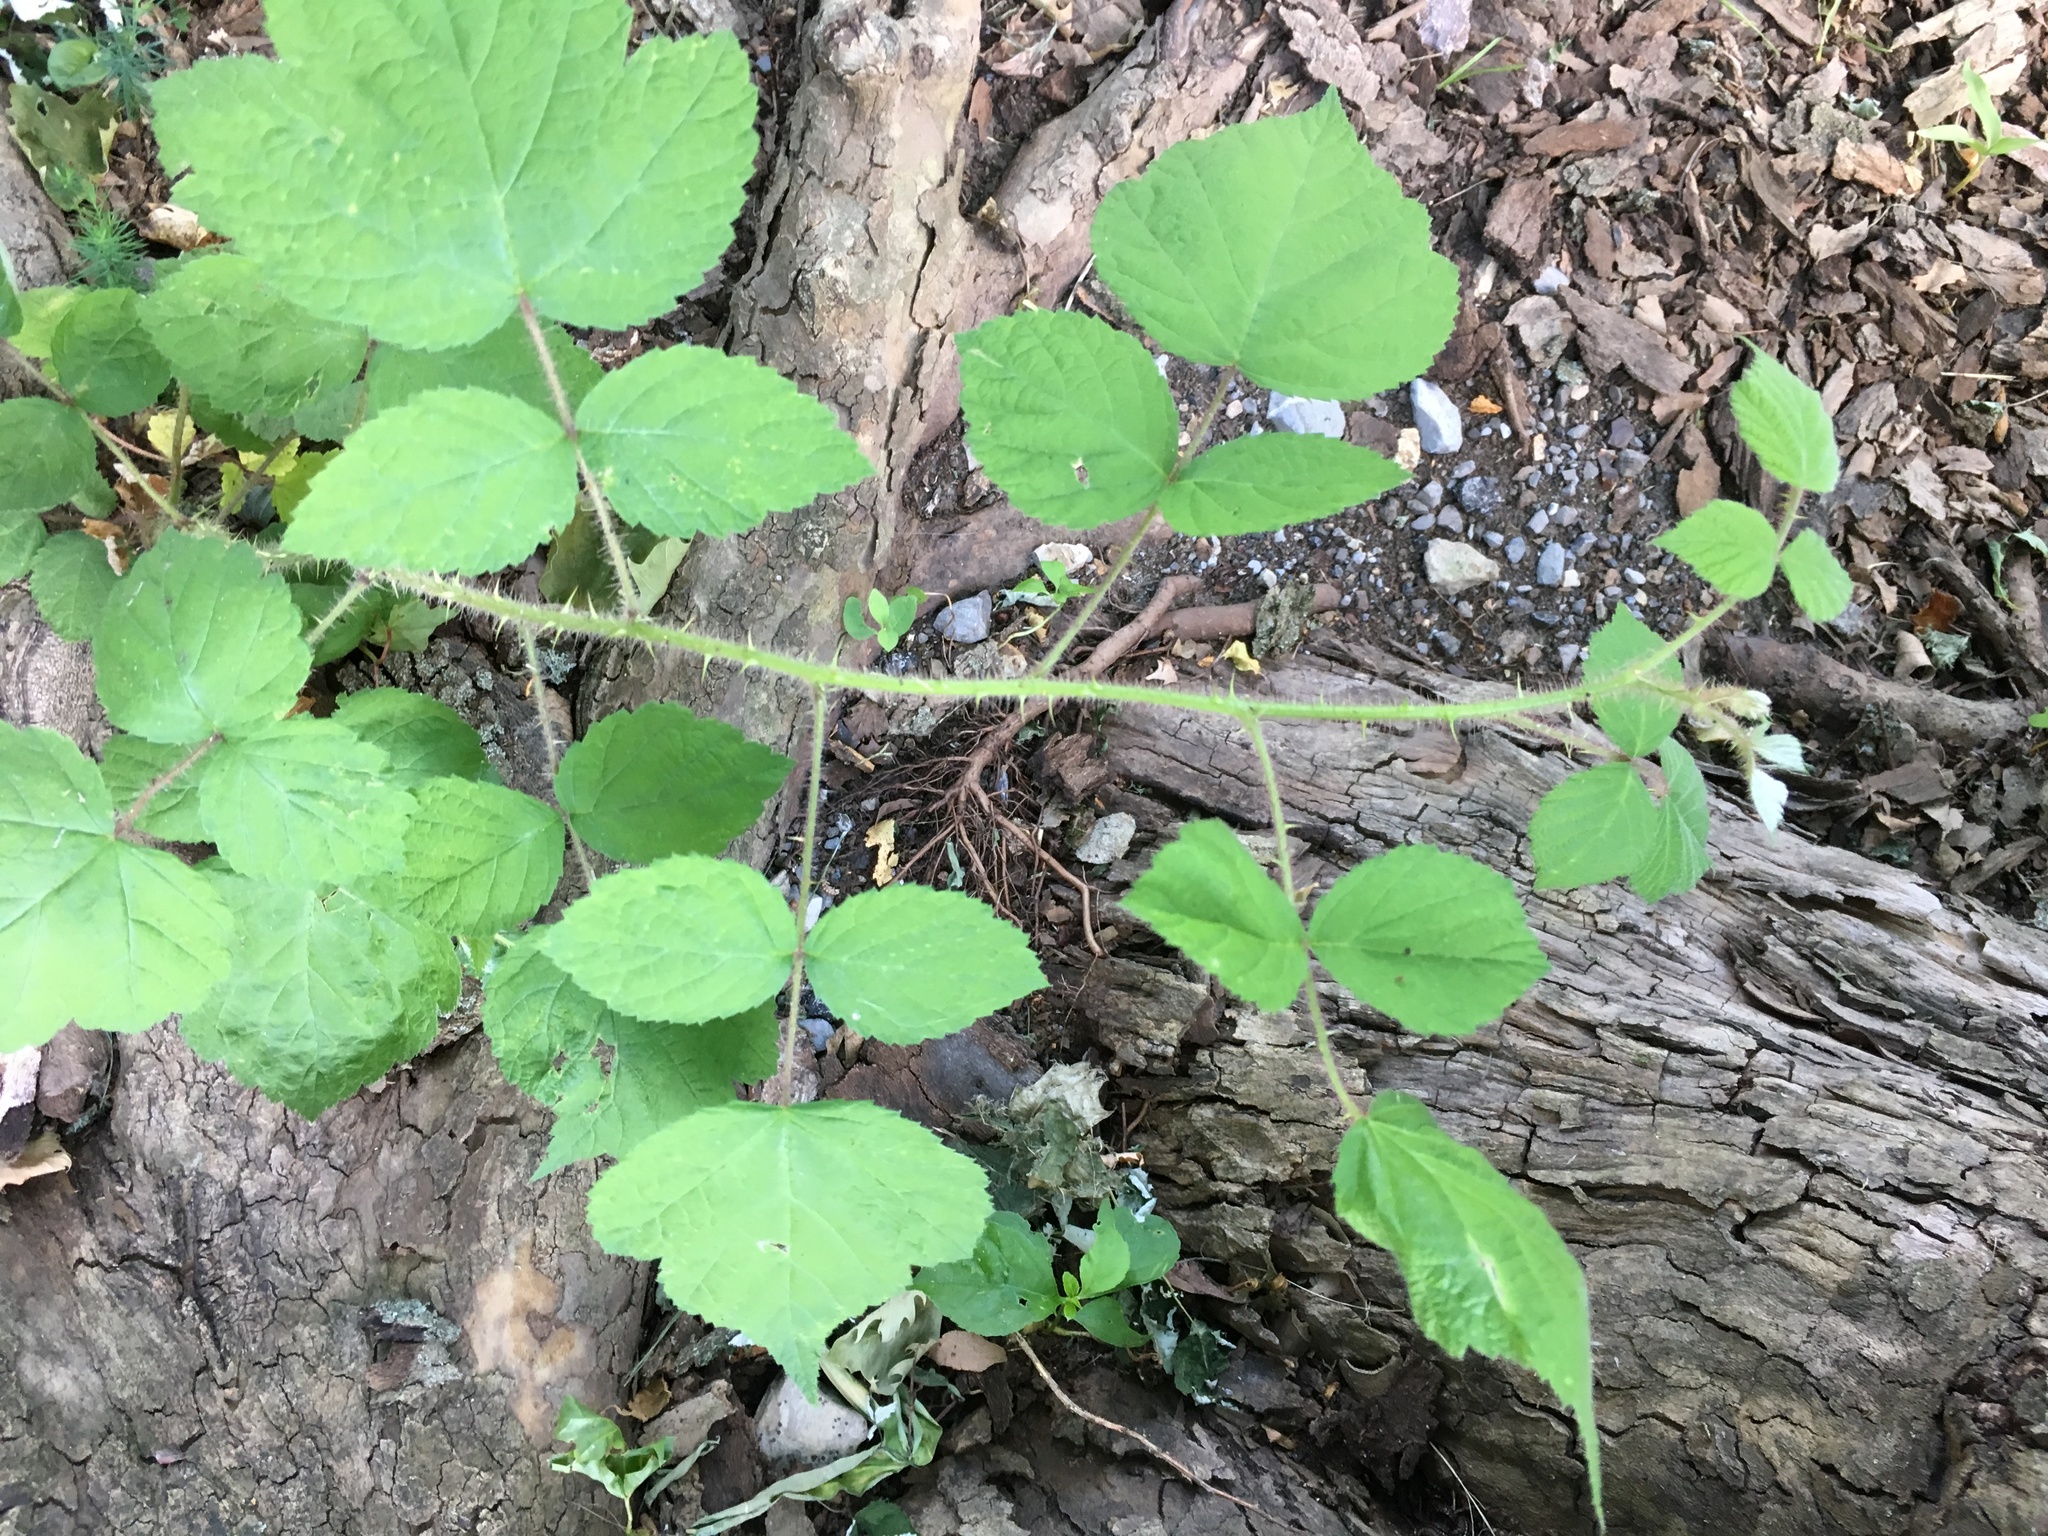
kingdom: Plantae
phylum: Tracheophyta
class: Magnoliopsida
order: Rosales
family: Rosaceae
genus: Rubus
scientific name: Rubus phoenicolasius
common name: Japanese wineberry
